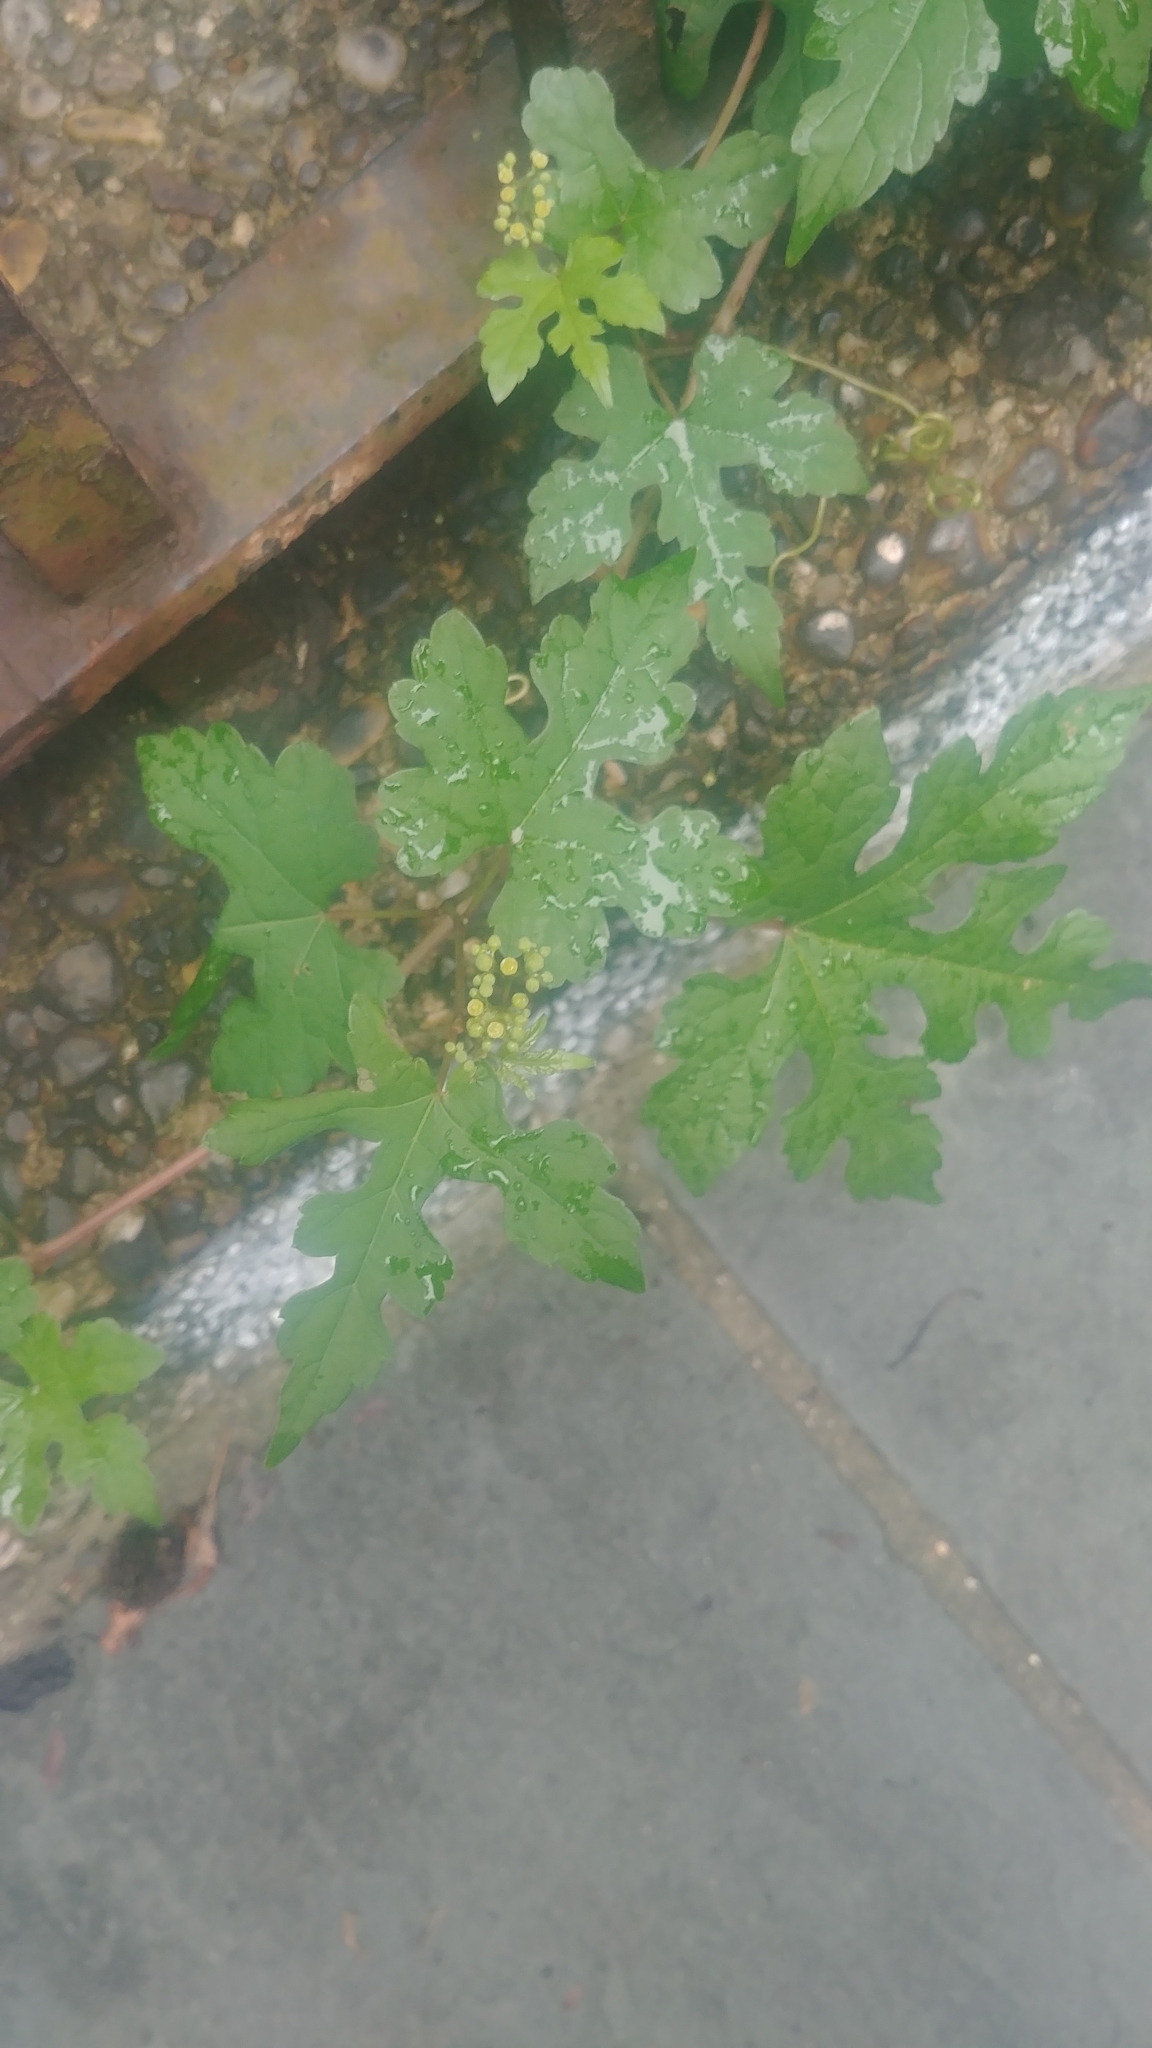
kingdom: Plantae
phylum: Tracheophyta
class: Magnoliopsida
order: Vitales
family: Vitaceae
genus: Ampelopsis
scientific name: Ampelopsis glandulosa
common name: Amur peppervine
